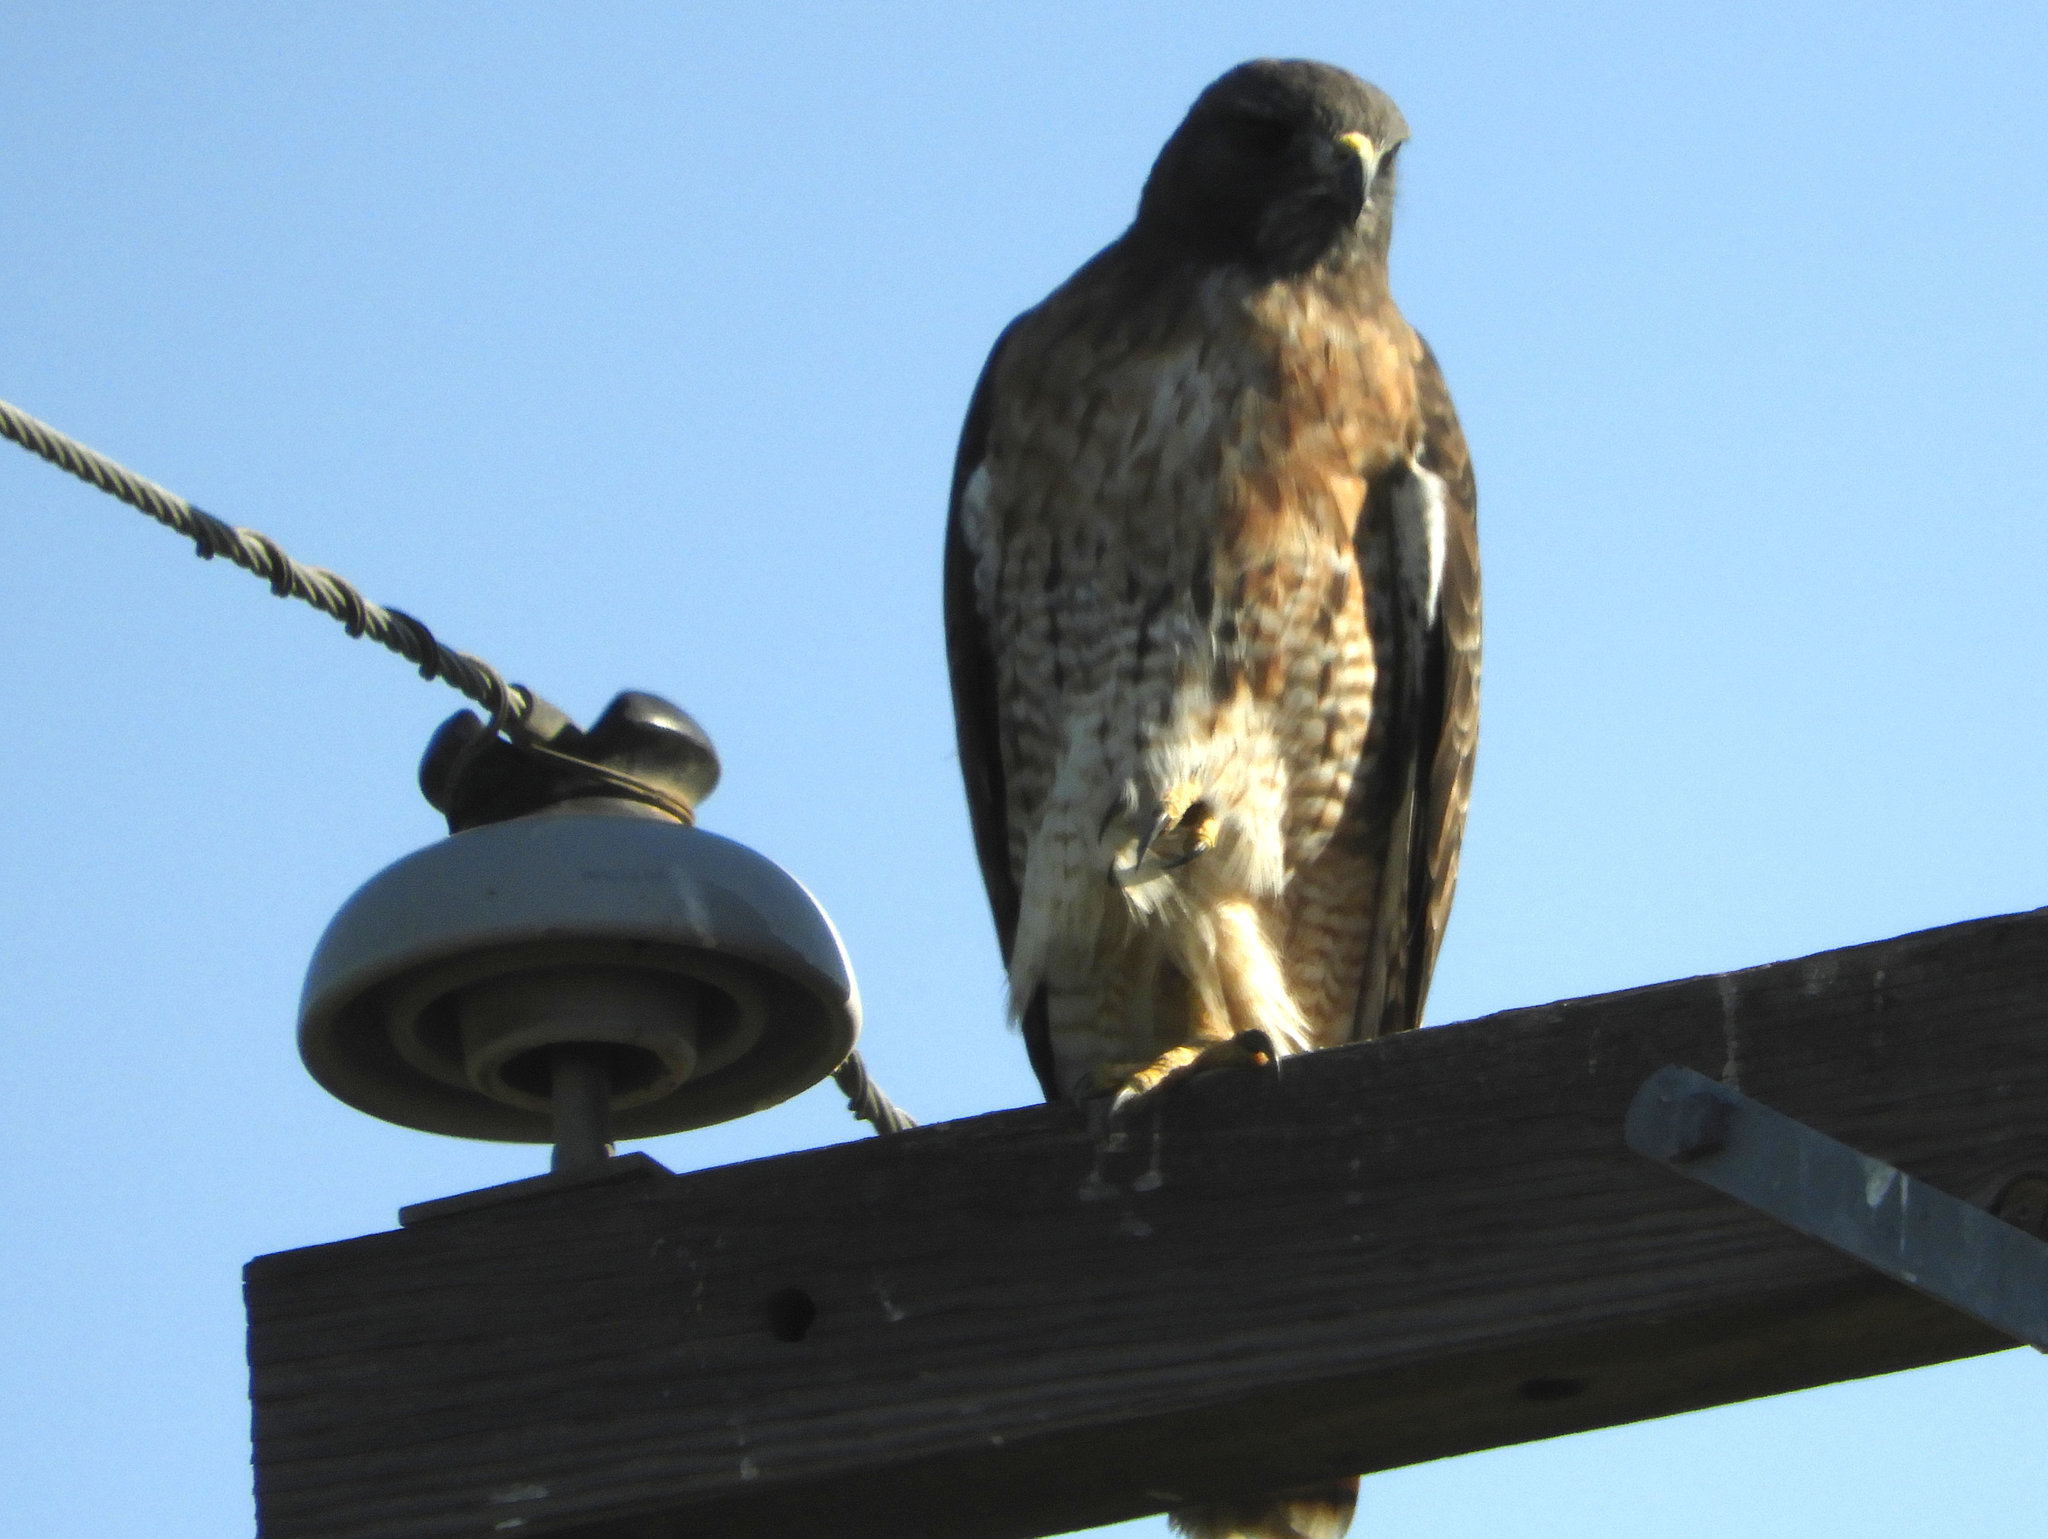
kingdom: Animalia
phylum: Chordata
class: Aves
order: Accipitriformes
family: Accipitridae
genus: Buteo
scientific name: Buteo jamaicensis
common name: Red-tailed hawk
